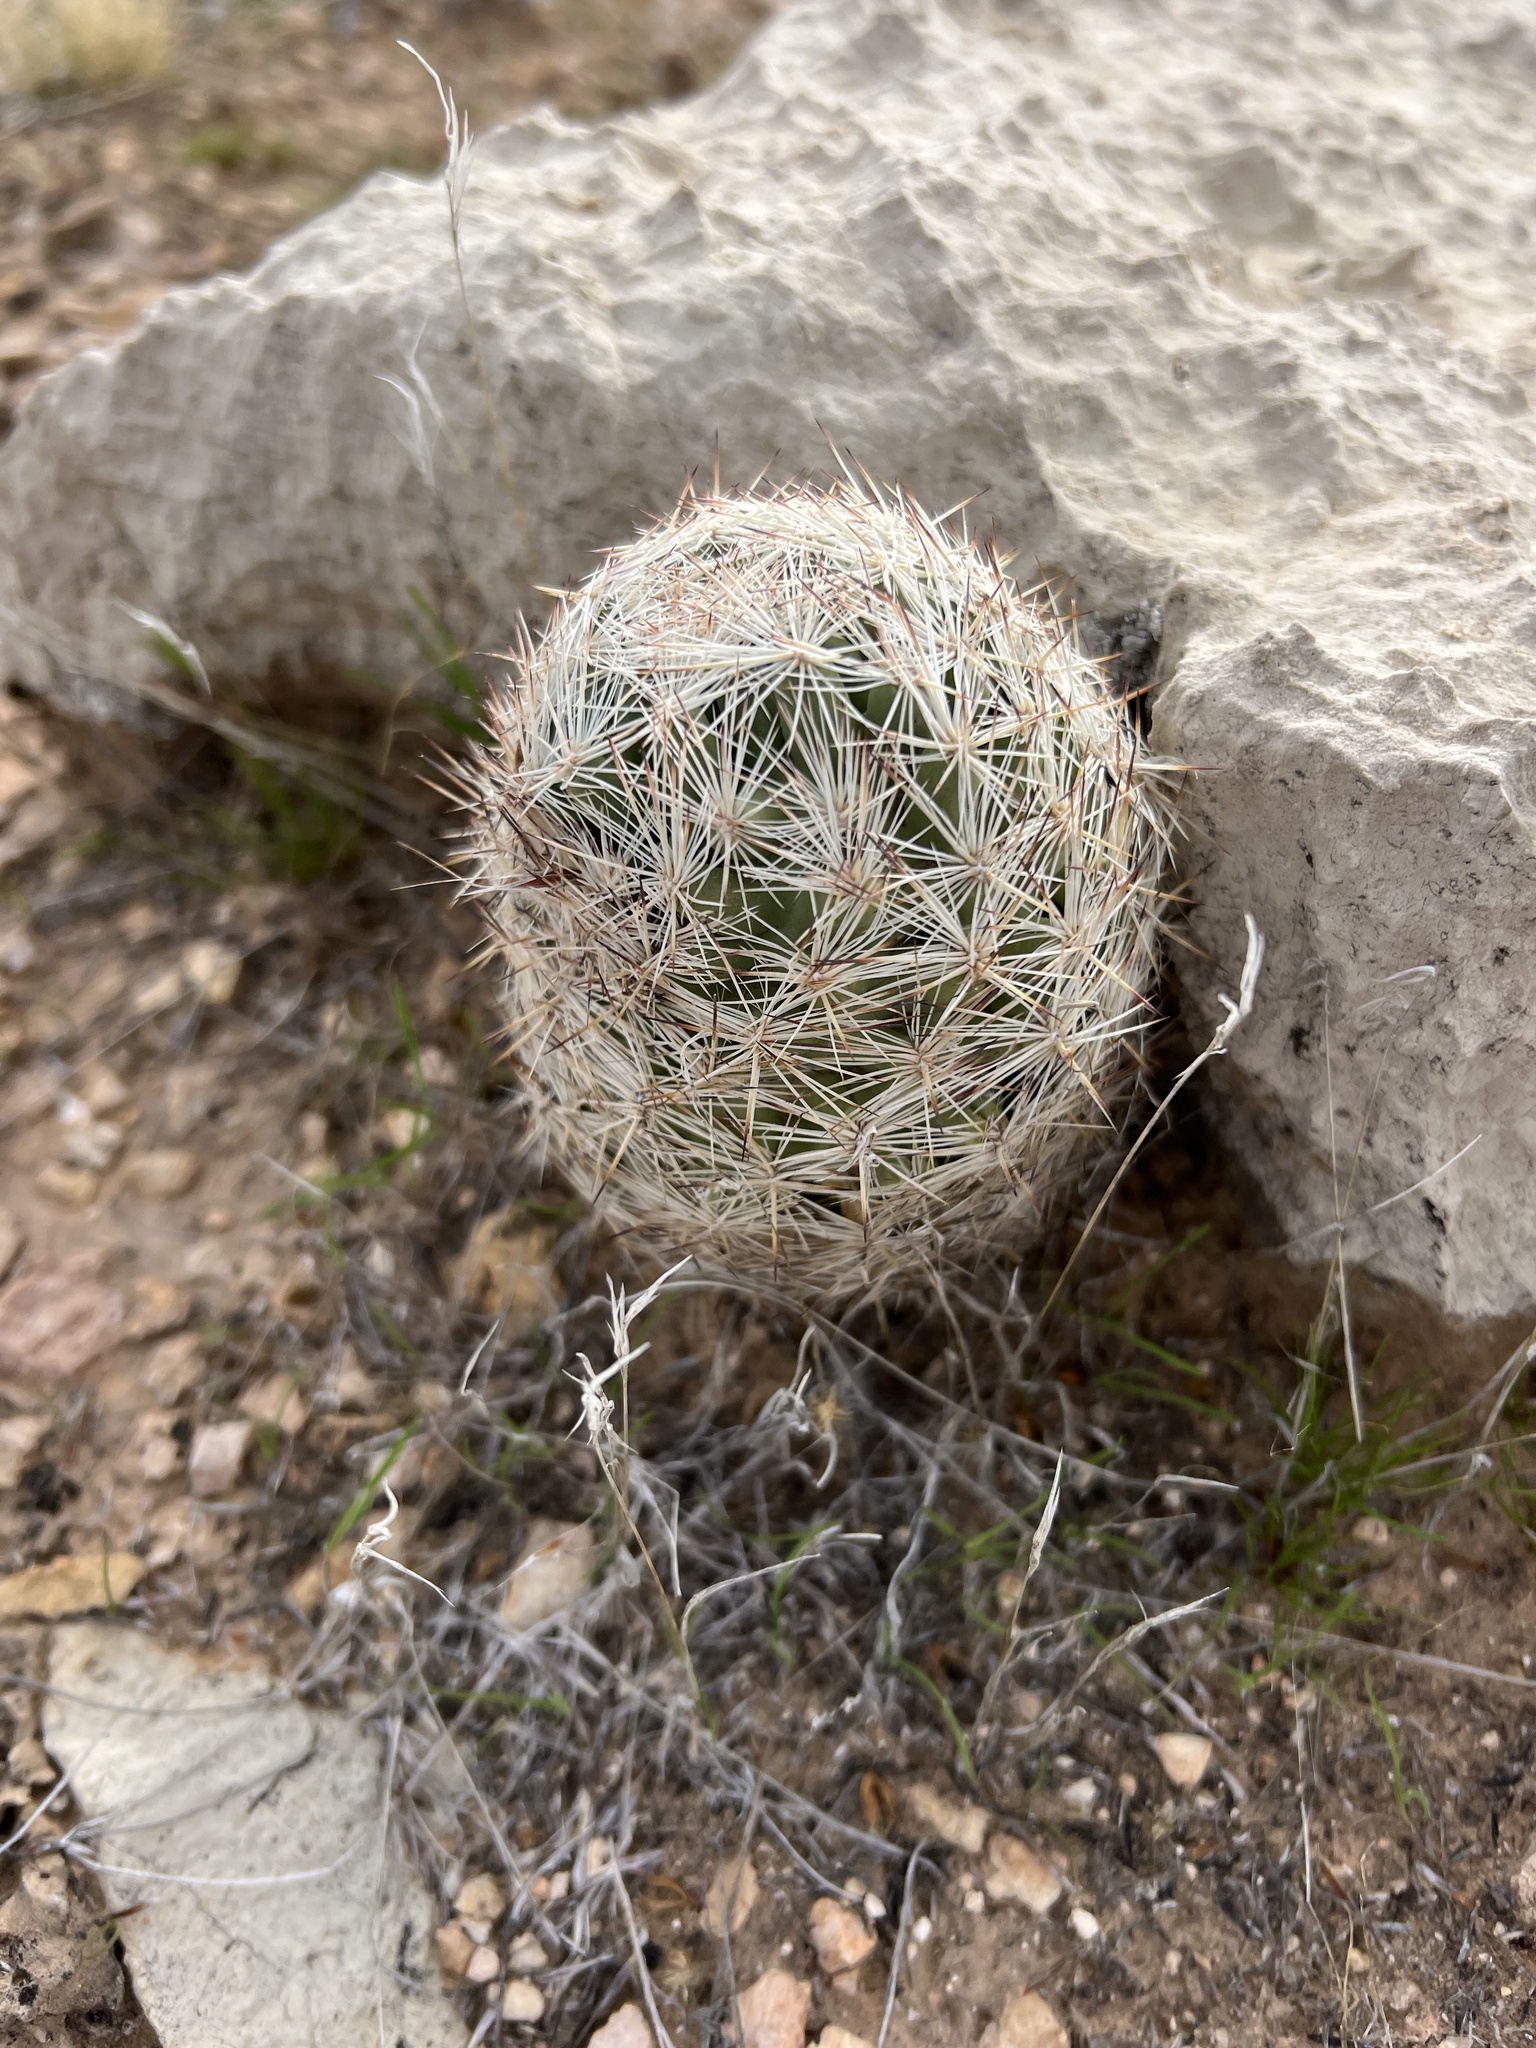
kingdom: Plantae
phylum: Tracheophyta
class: Magnoliopsida
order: Caryophyllales
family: Cactaceae
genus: Pelecyphora
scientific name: Pelecyphora dasyacantha
